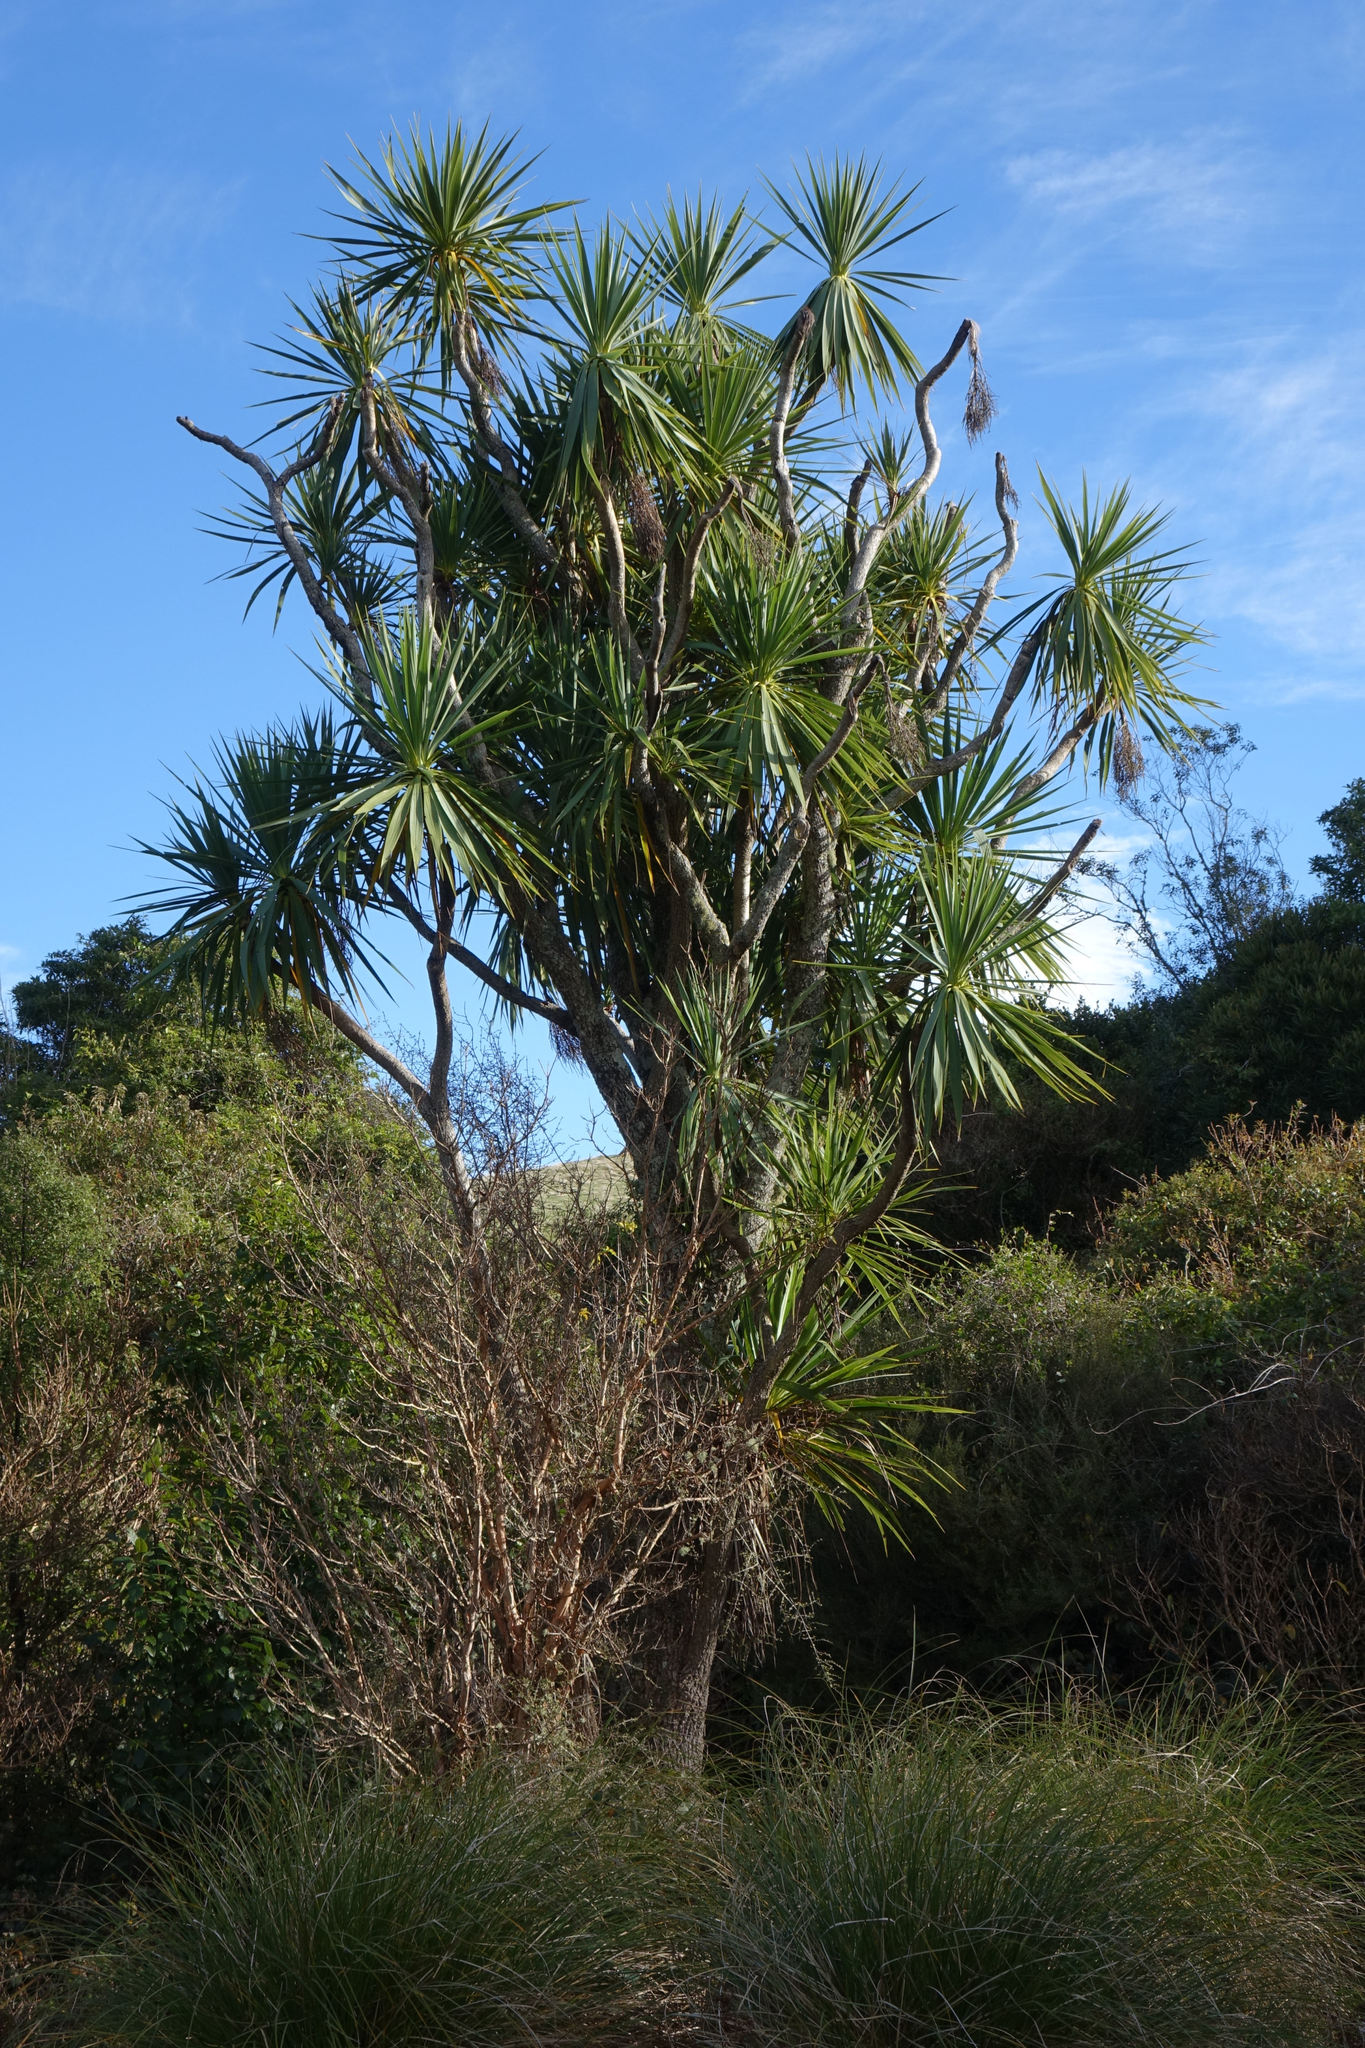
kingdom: Plantae
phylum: Tracheophyta
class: Liliopsida
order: Asparagales
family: Asparagaceae
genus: Cordyline
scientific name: Cordyline australis
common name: Cabbage-palm
